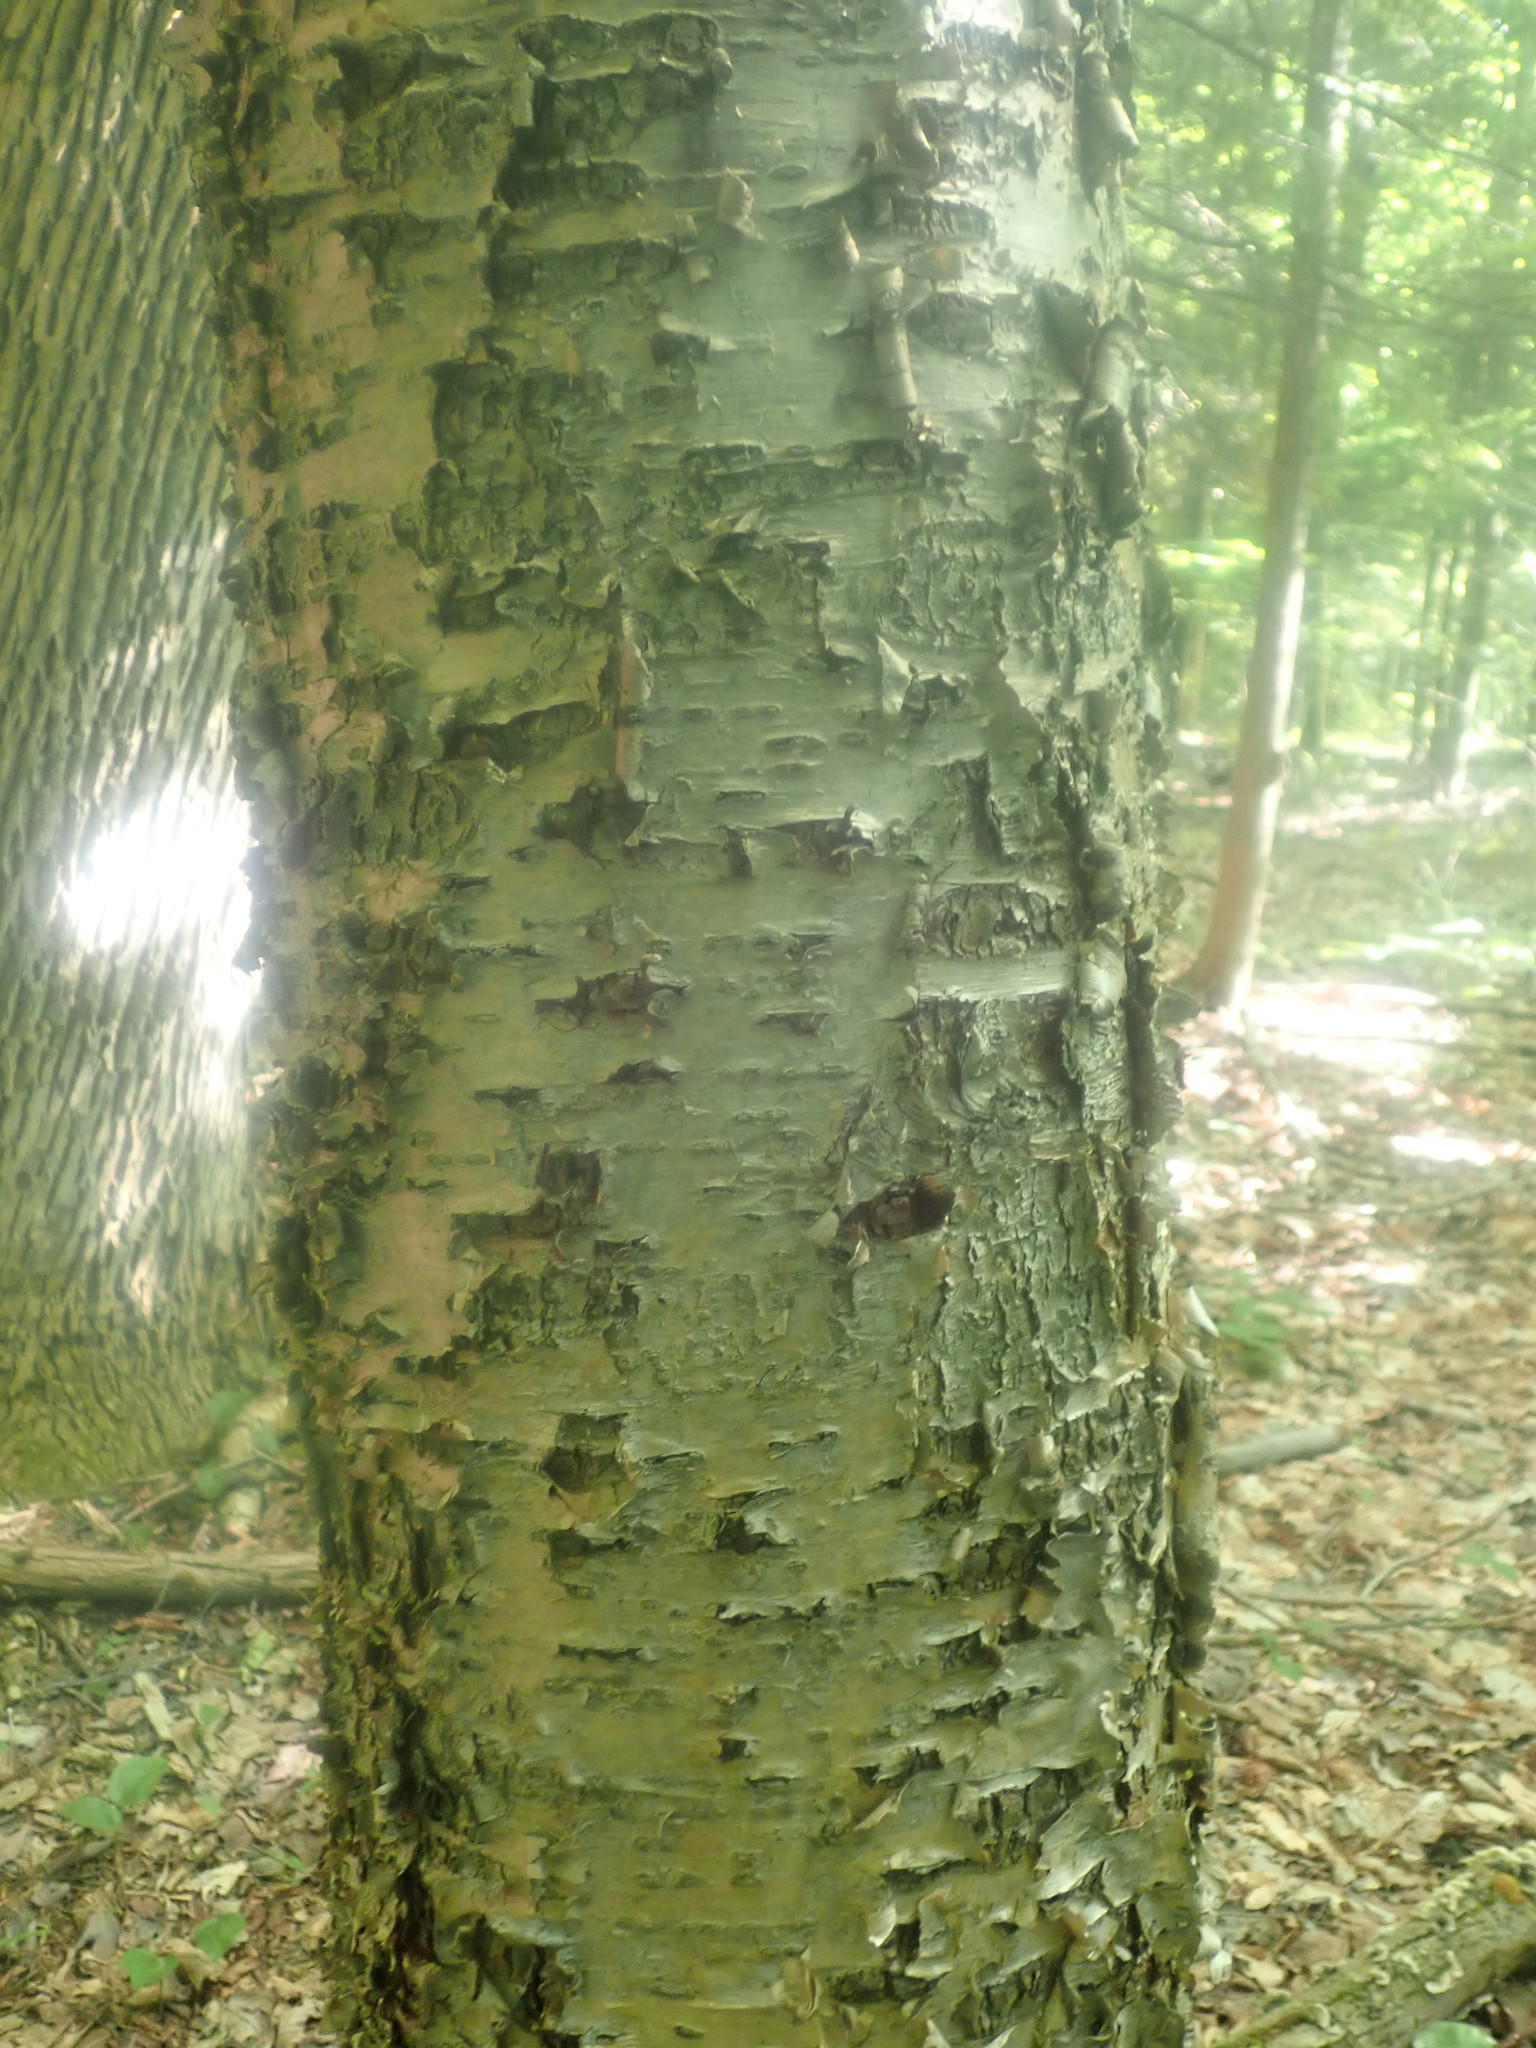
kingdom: Plantae
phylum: Tracheophyta
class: Magnoliopsida
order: Fagales
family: Betulaceae
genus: Betula
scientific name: Betula alleghaniensis
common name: Yellow birch
